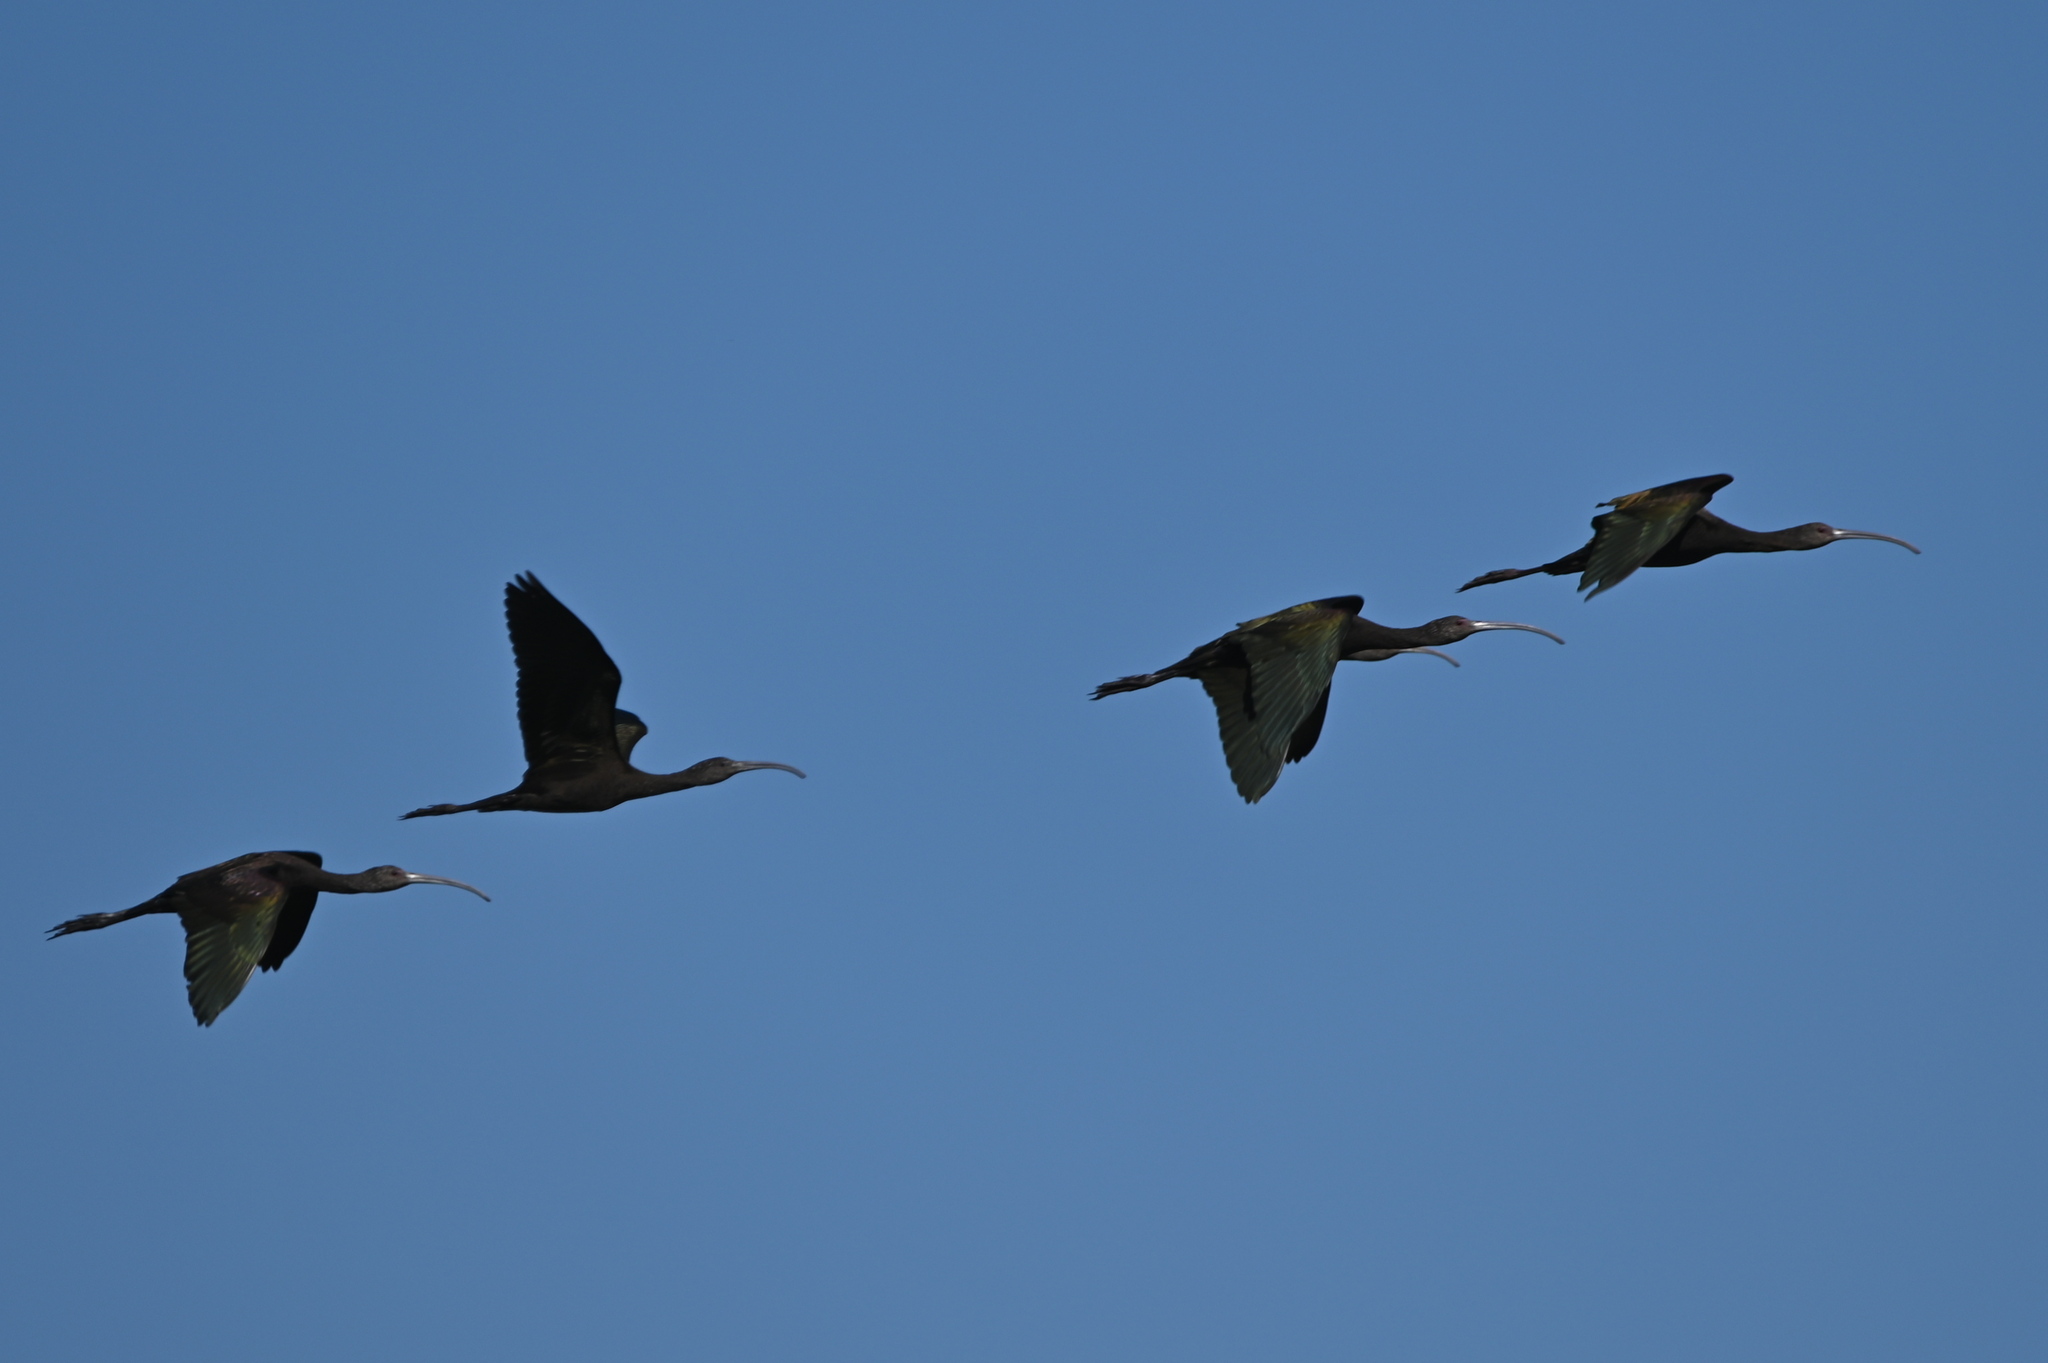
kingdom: Animalia
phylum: Chordata
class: Aves
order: Pelecaniformes
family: Threskiornithidae
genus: Plegadis
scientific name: Plegadis chihi
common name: White-faced ibis
